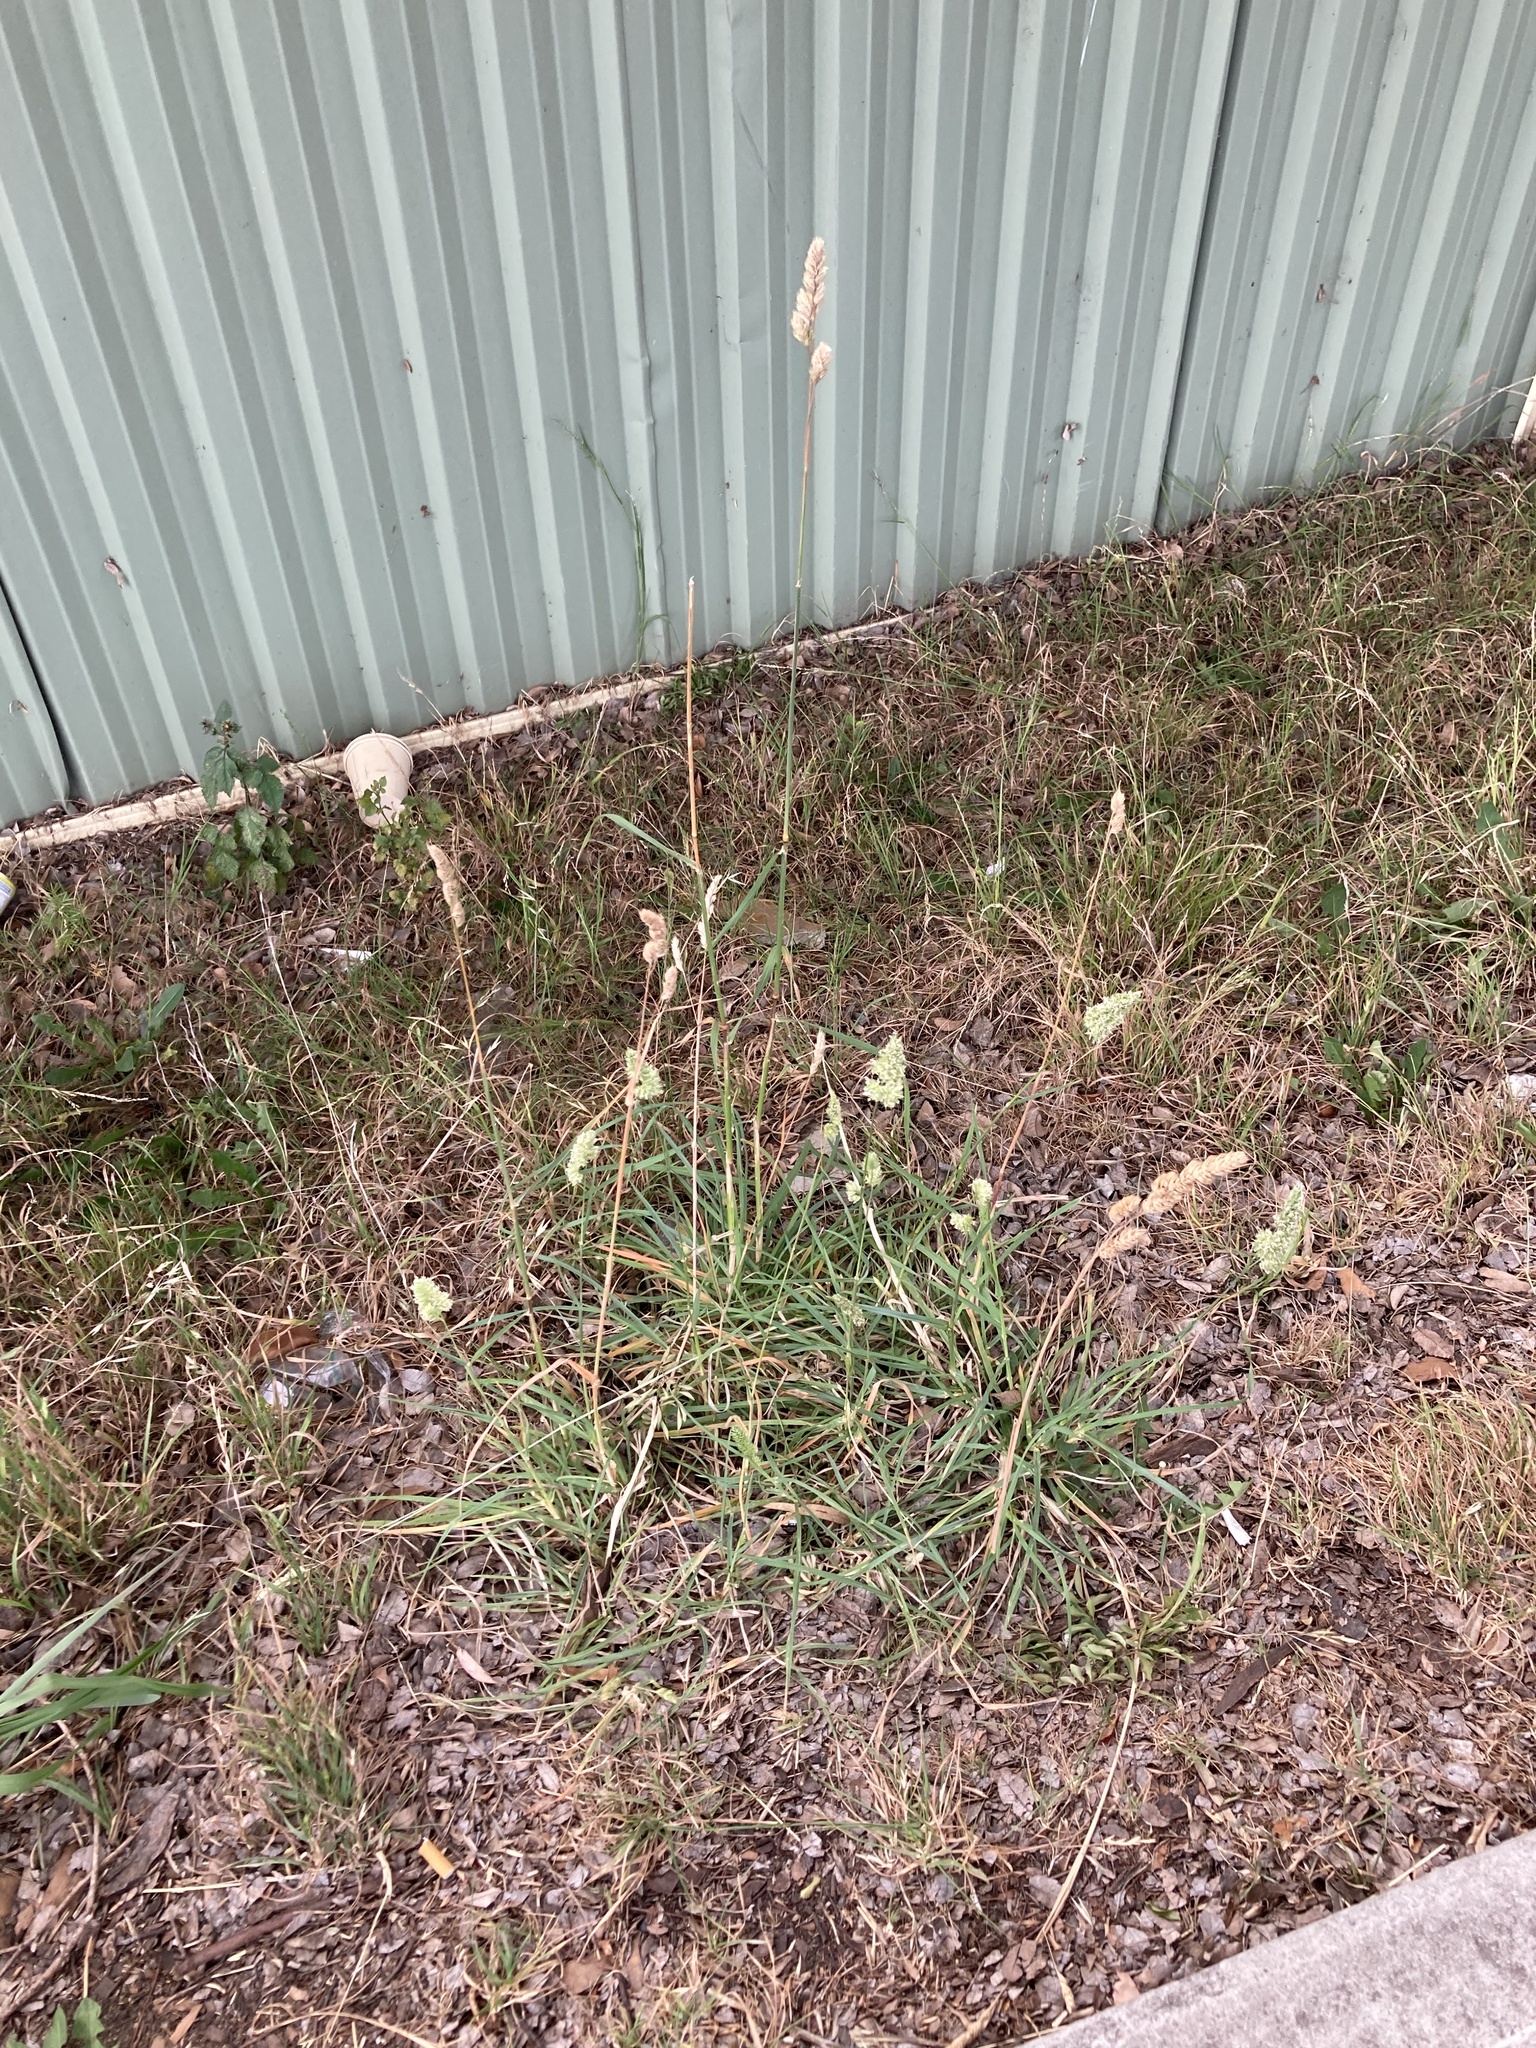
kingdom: Plantae
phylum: Tracheophyta
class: Liliopsida
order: Poales
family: Poaceae
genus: Dactylis
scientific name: Dactylis glomerata
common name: Orchardgrass
